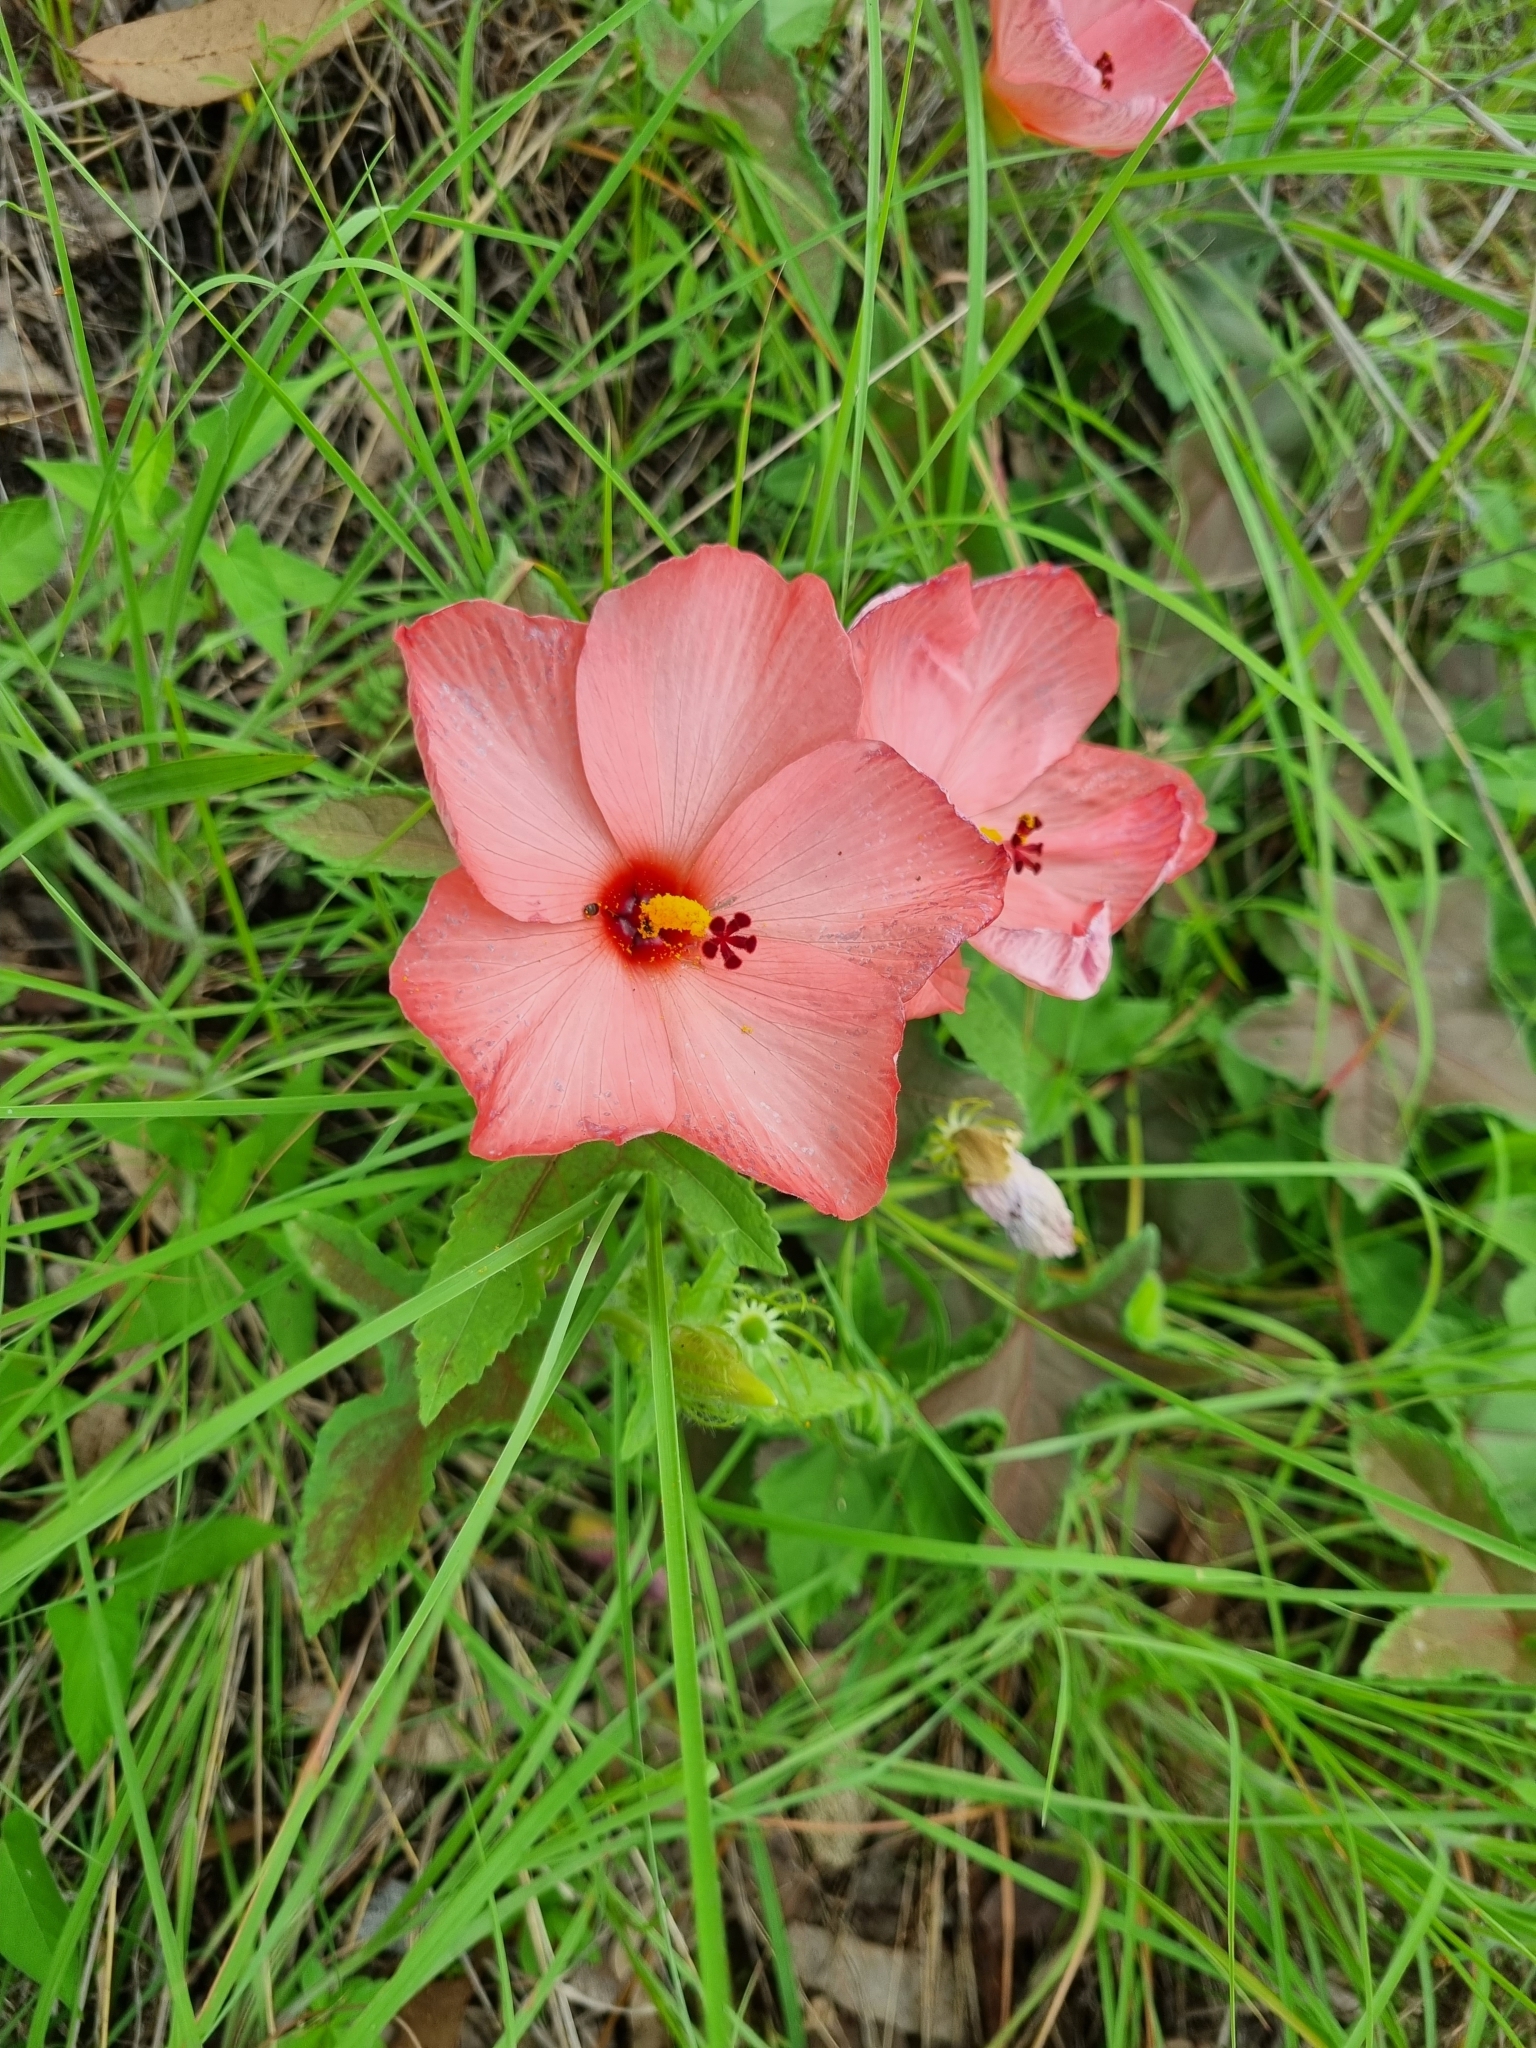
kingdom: Plantae
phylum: Tracheophyta
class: Magnoliopsida
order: Malvales
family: Malvaceae
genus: Abelmoschus
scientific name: Abelmoschus sagittifolius
